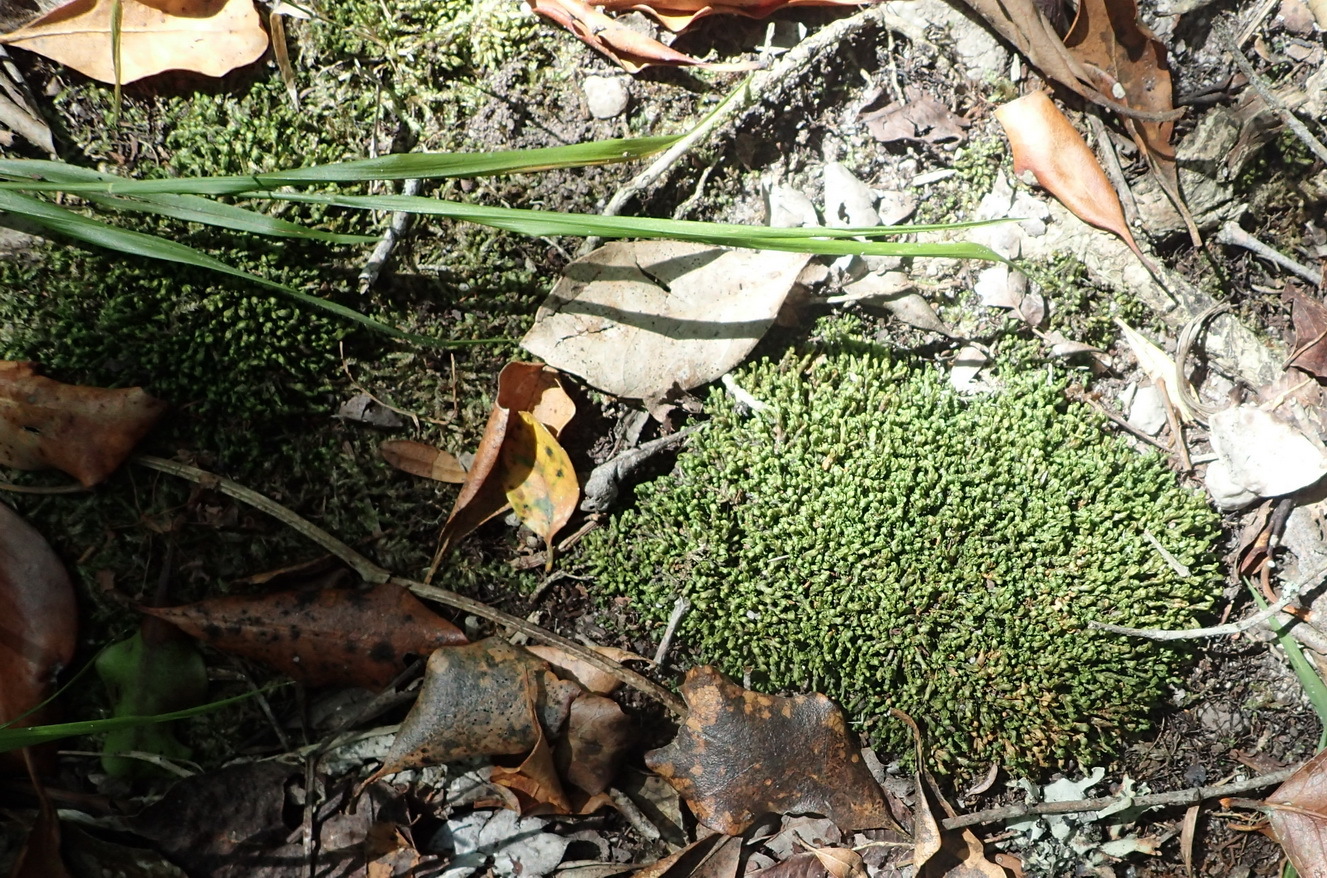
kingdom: Plantae
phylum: Bryophyta
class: Bryopsida
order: Dicranales
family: Fissidentaceae
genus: Fissidens
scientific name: Fissidens ovatus
